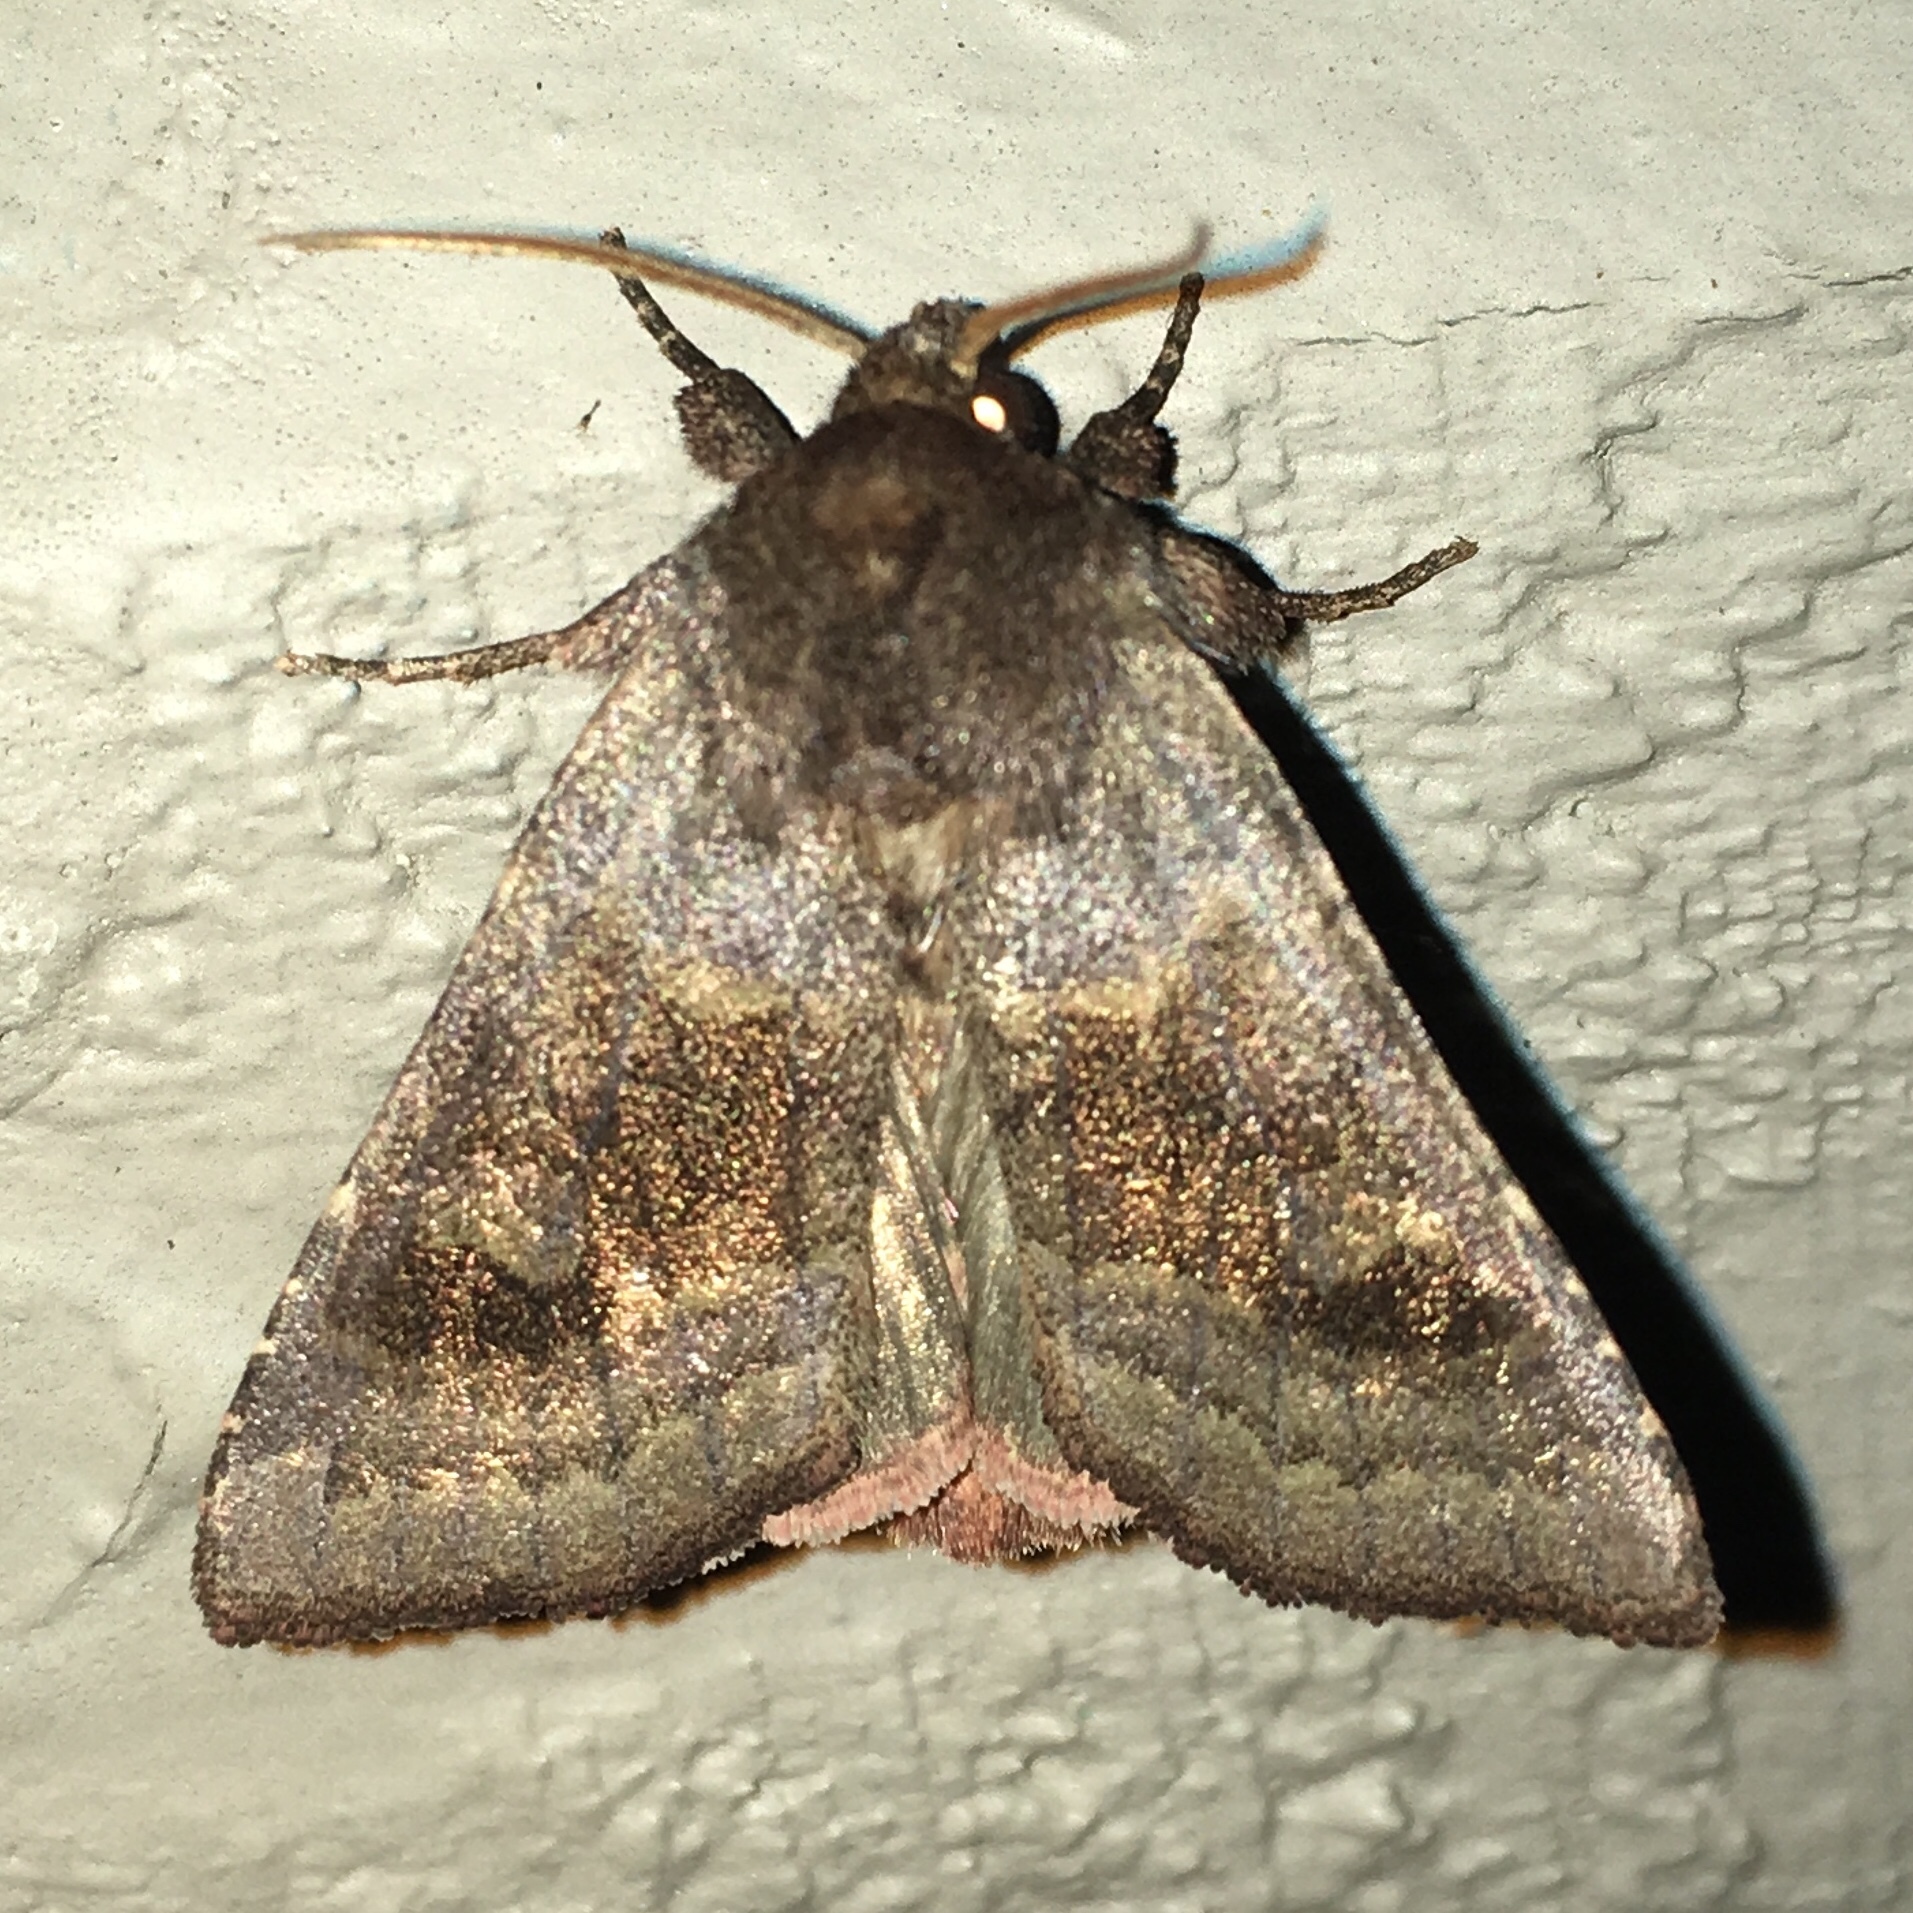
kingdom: Animalia
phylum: Arthropoda
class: Insecta
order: Lepidoptera
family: Noctuidae
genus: Nephelodes
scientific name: Nephelodes minians
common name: Bronzed cutworm
